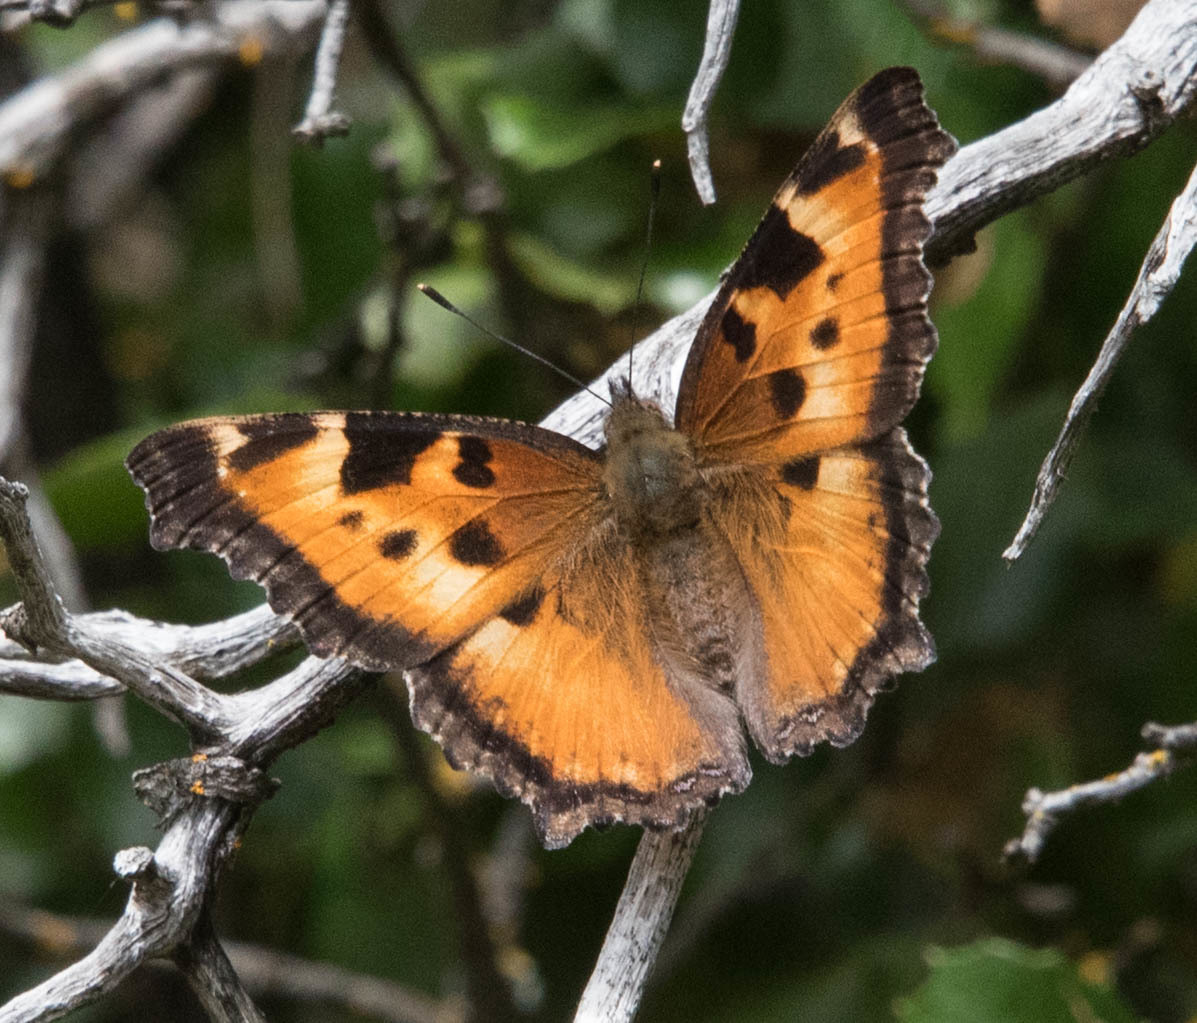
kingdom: Animalia
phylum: Arthropoda
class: Insecta
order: Lepidoptera
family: Nymphalidae
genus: Nymphalis
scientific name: Nymphalis californica
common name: California tortoiseshell
